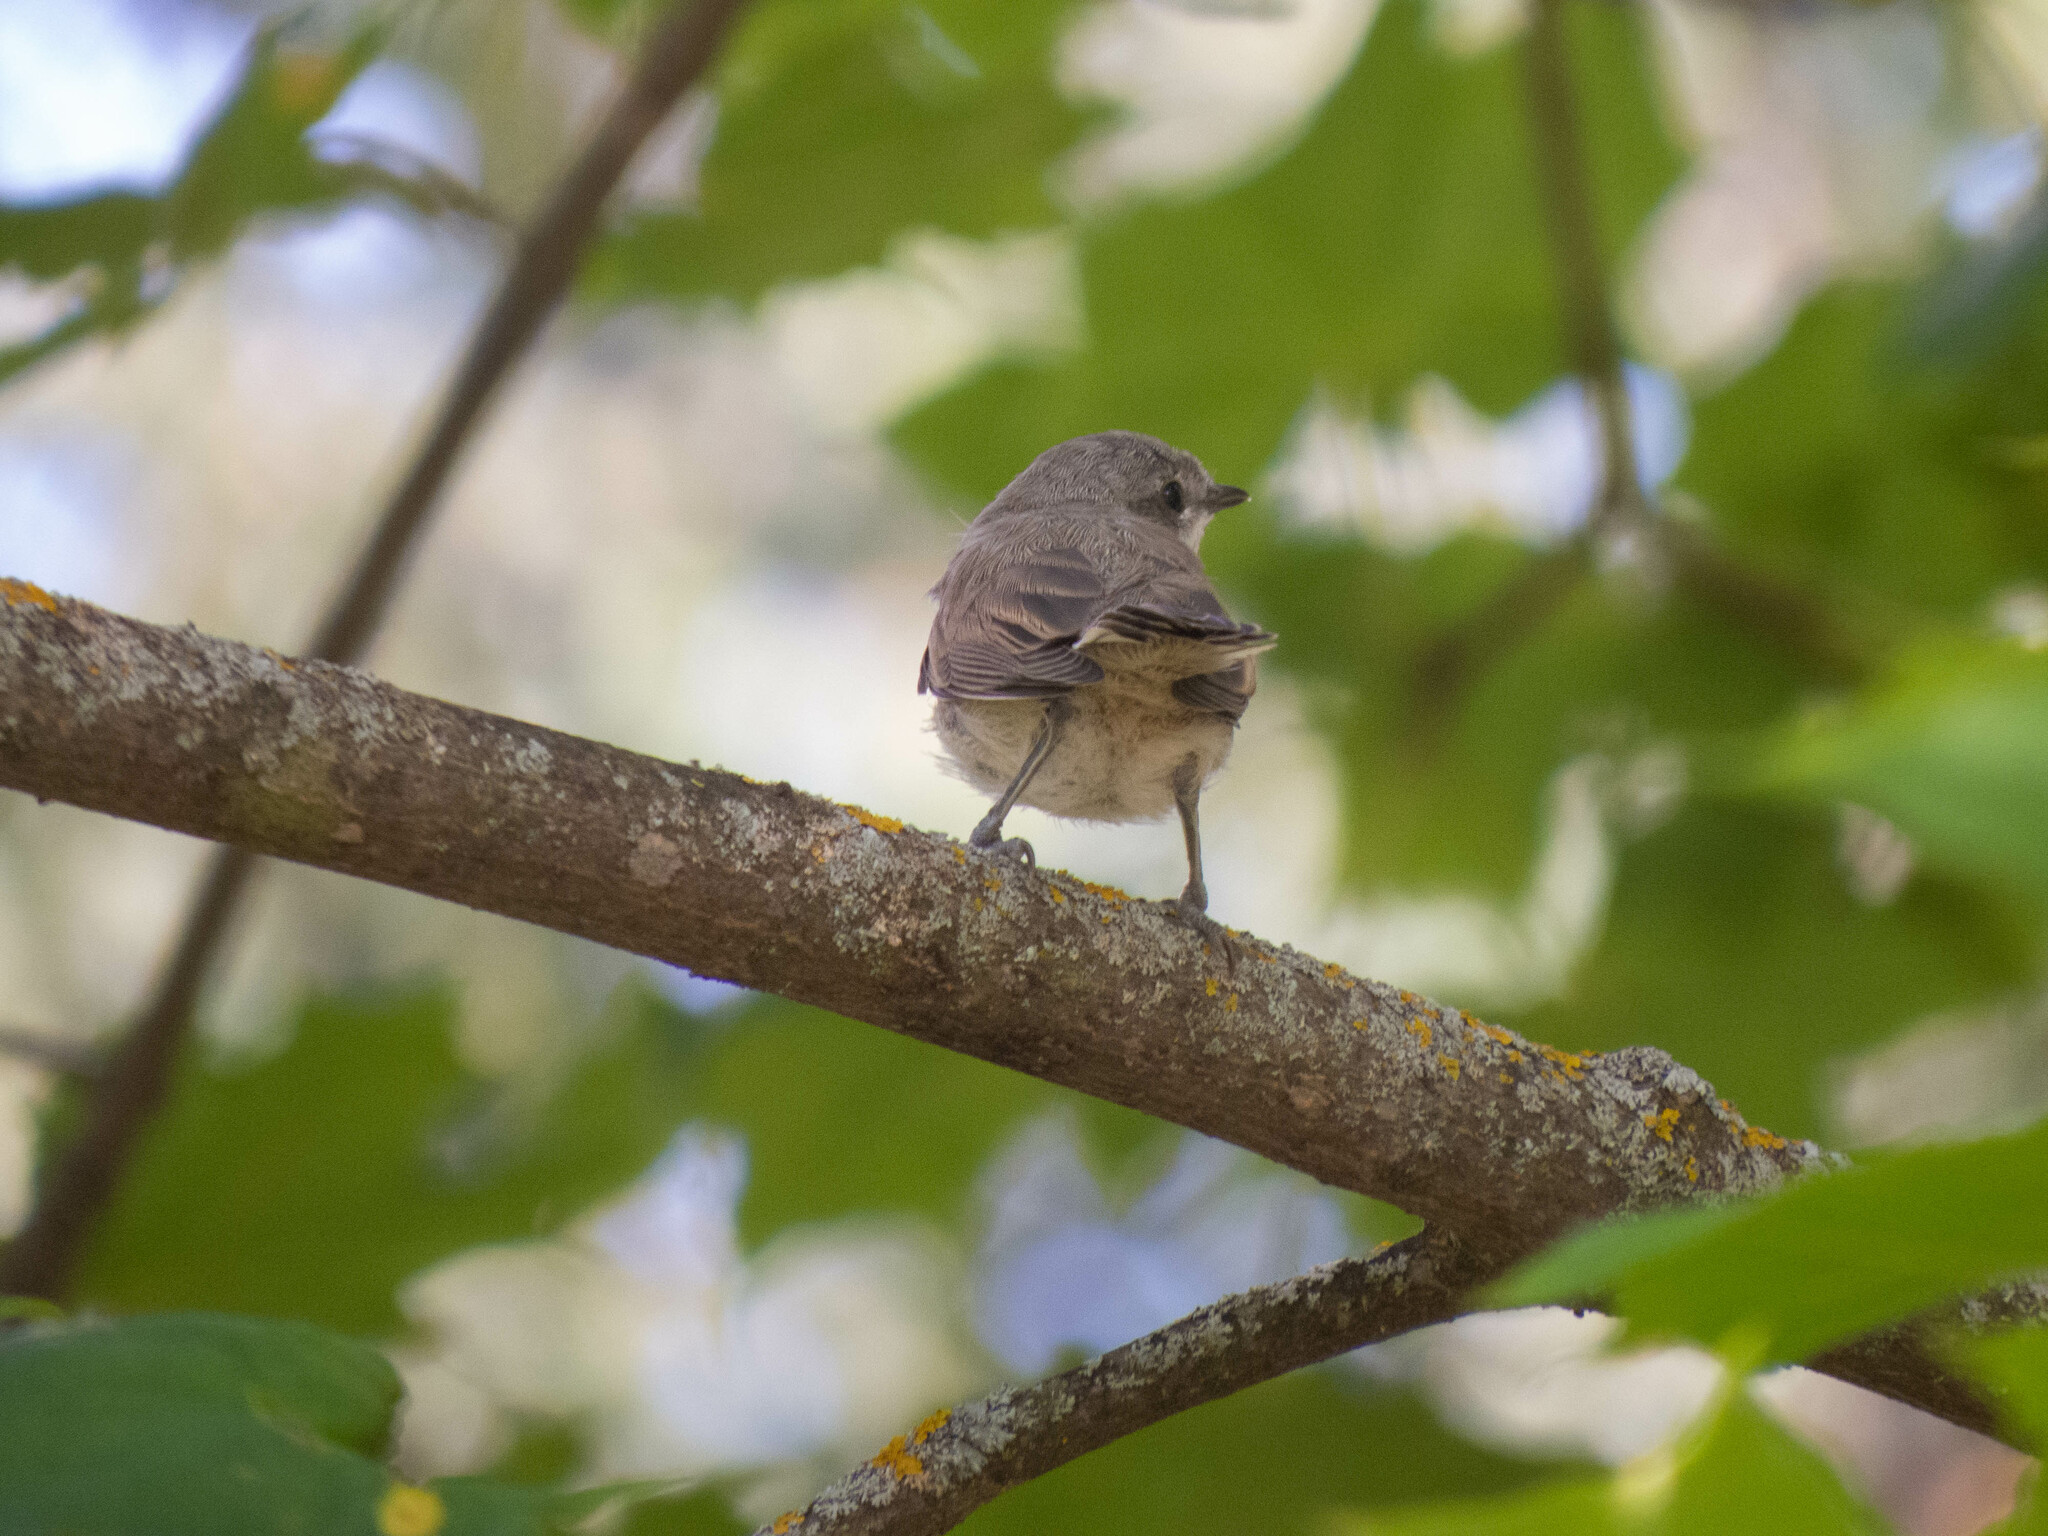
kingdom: Animalia
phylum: Chordata
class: Aves
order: Passeriformes
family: Sylviidae
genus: Sylvia
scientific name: Sylvia curruca
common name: Lesser whitethroat
